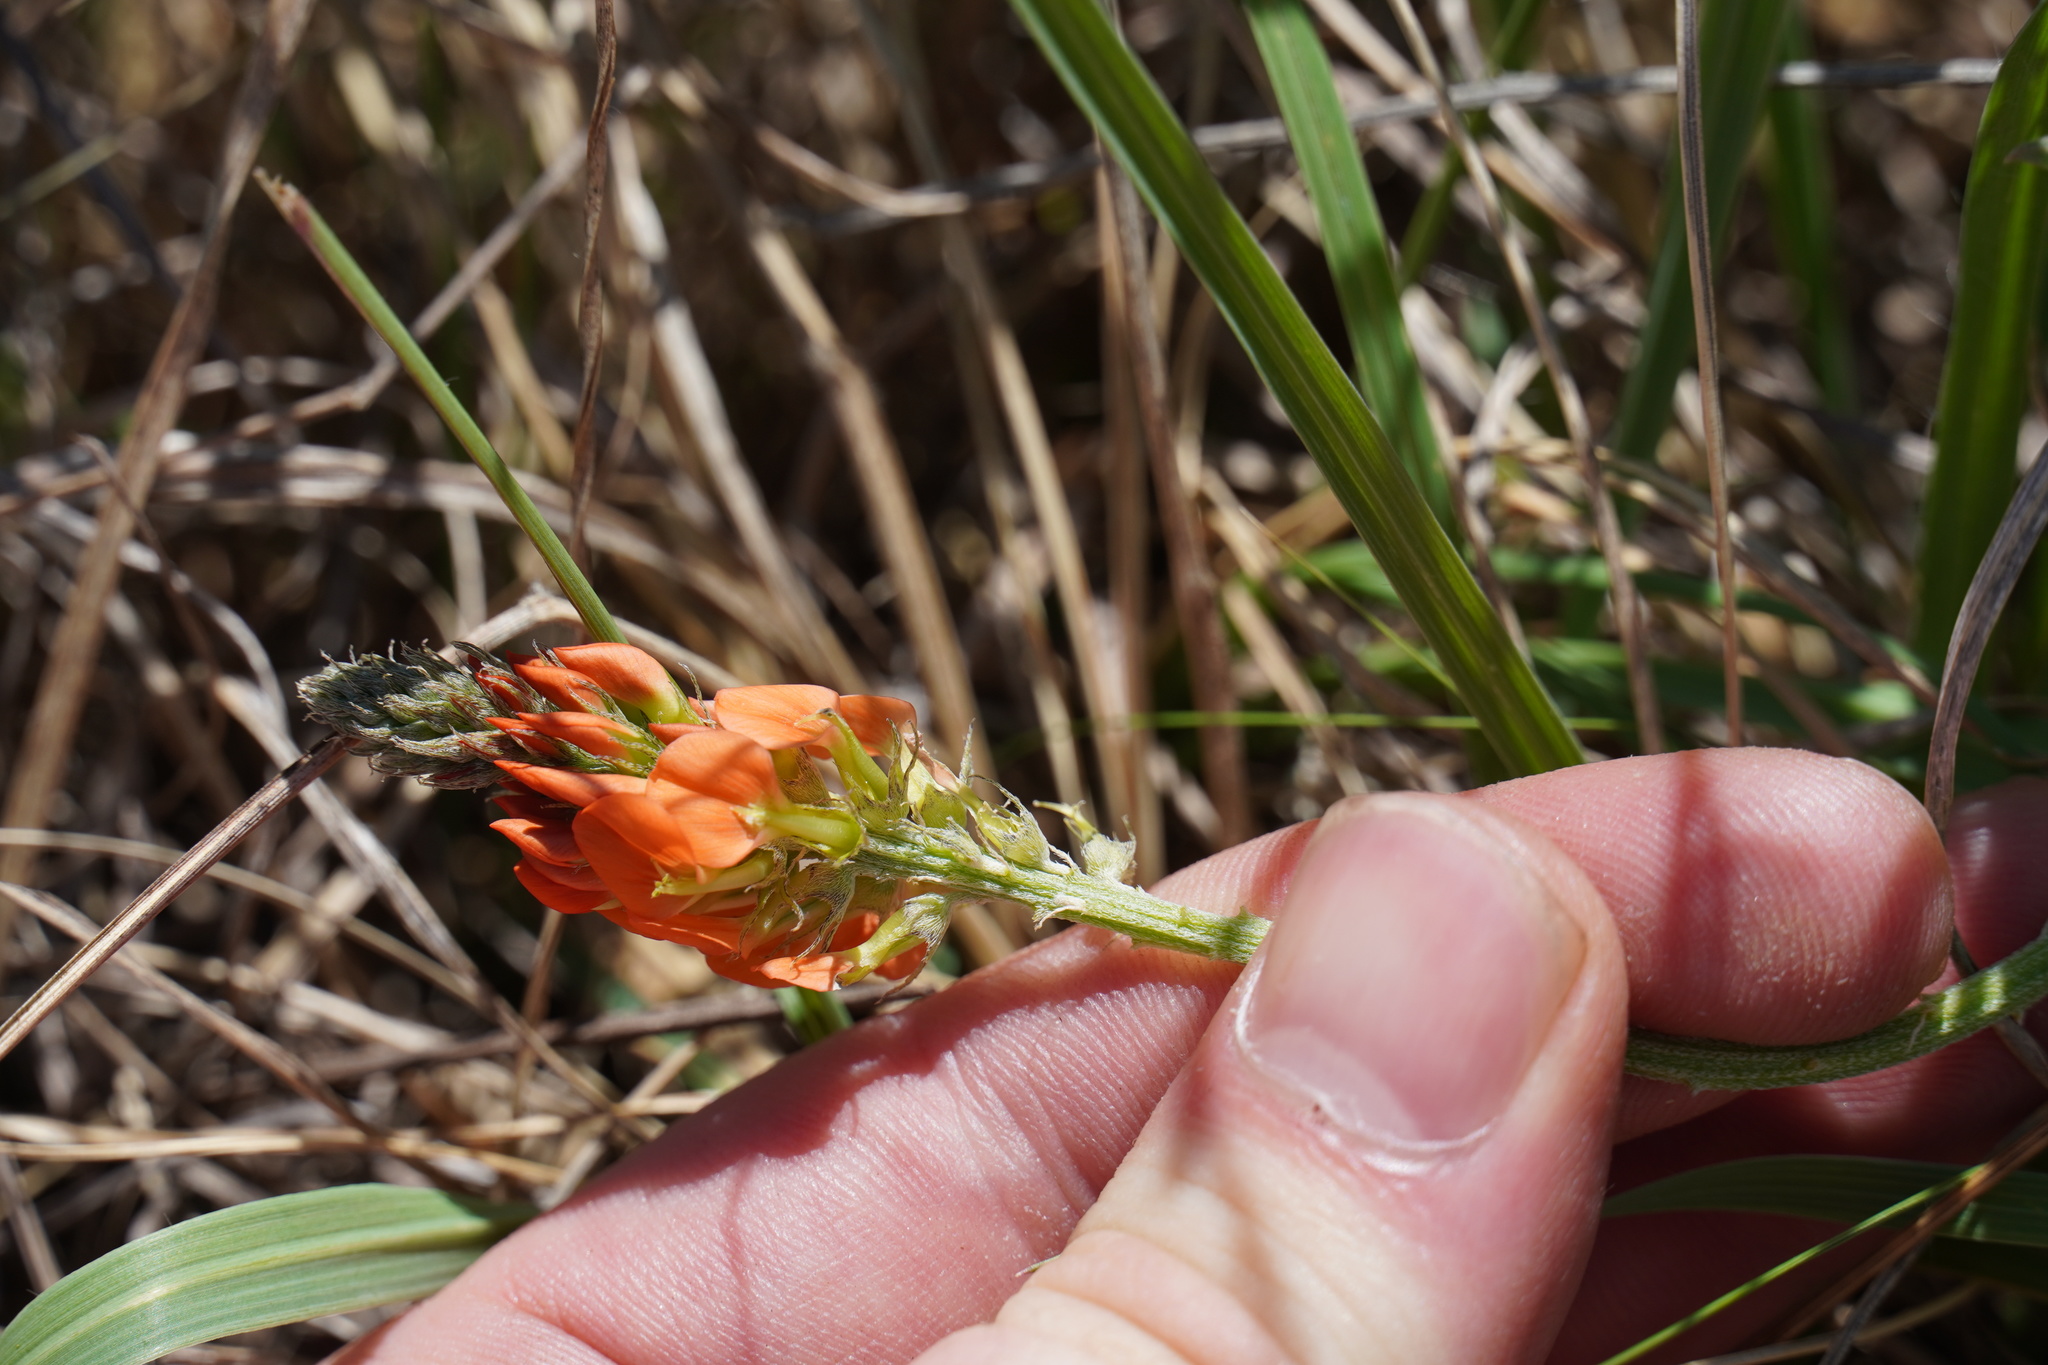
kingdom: Plantae
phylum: Tracheophyta
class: Magnoliopsida
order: Fabales
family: Fabaceae
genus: Indigastrum
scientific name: Indigastrum burkeanum
